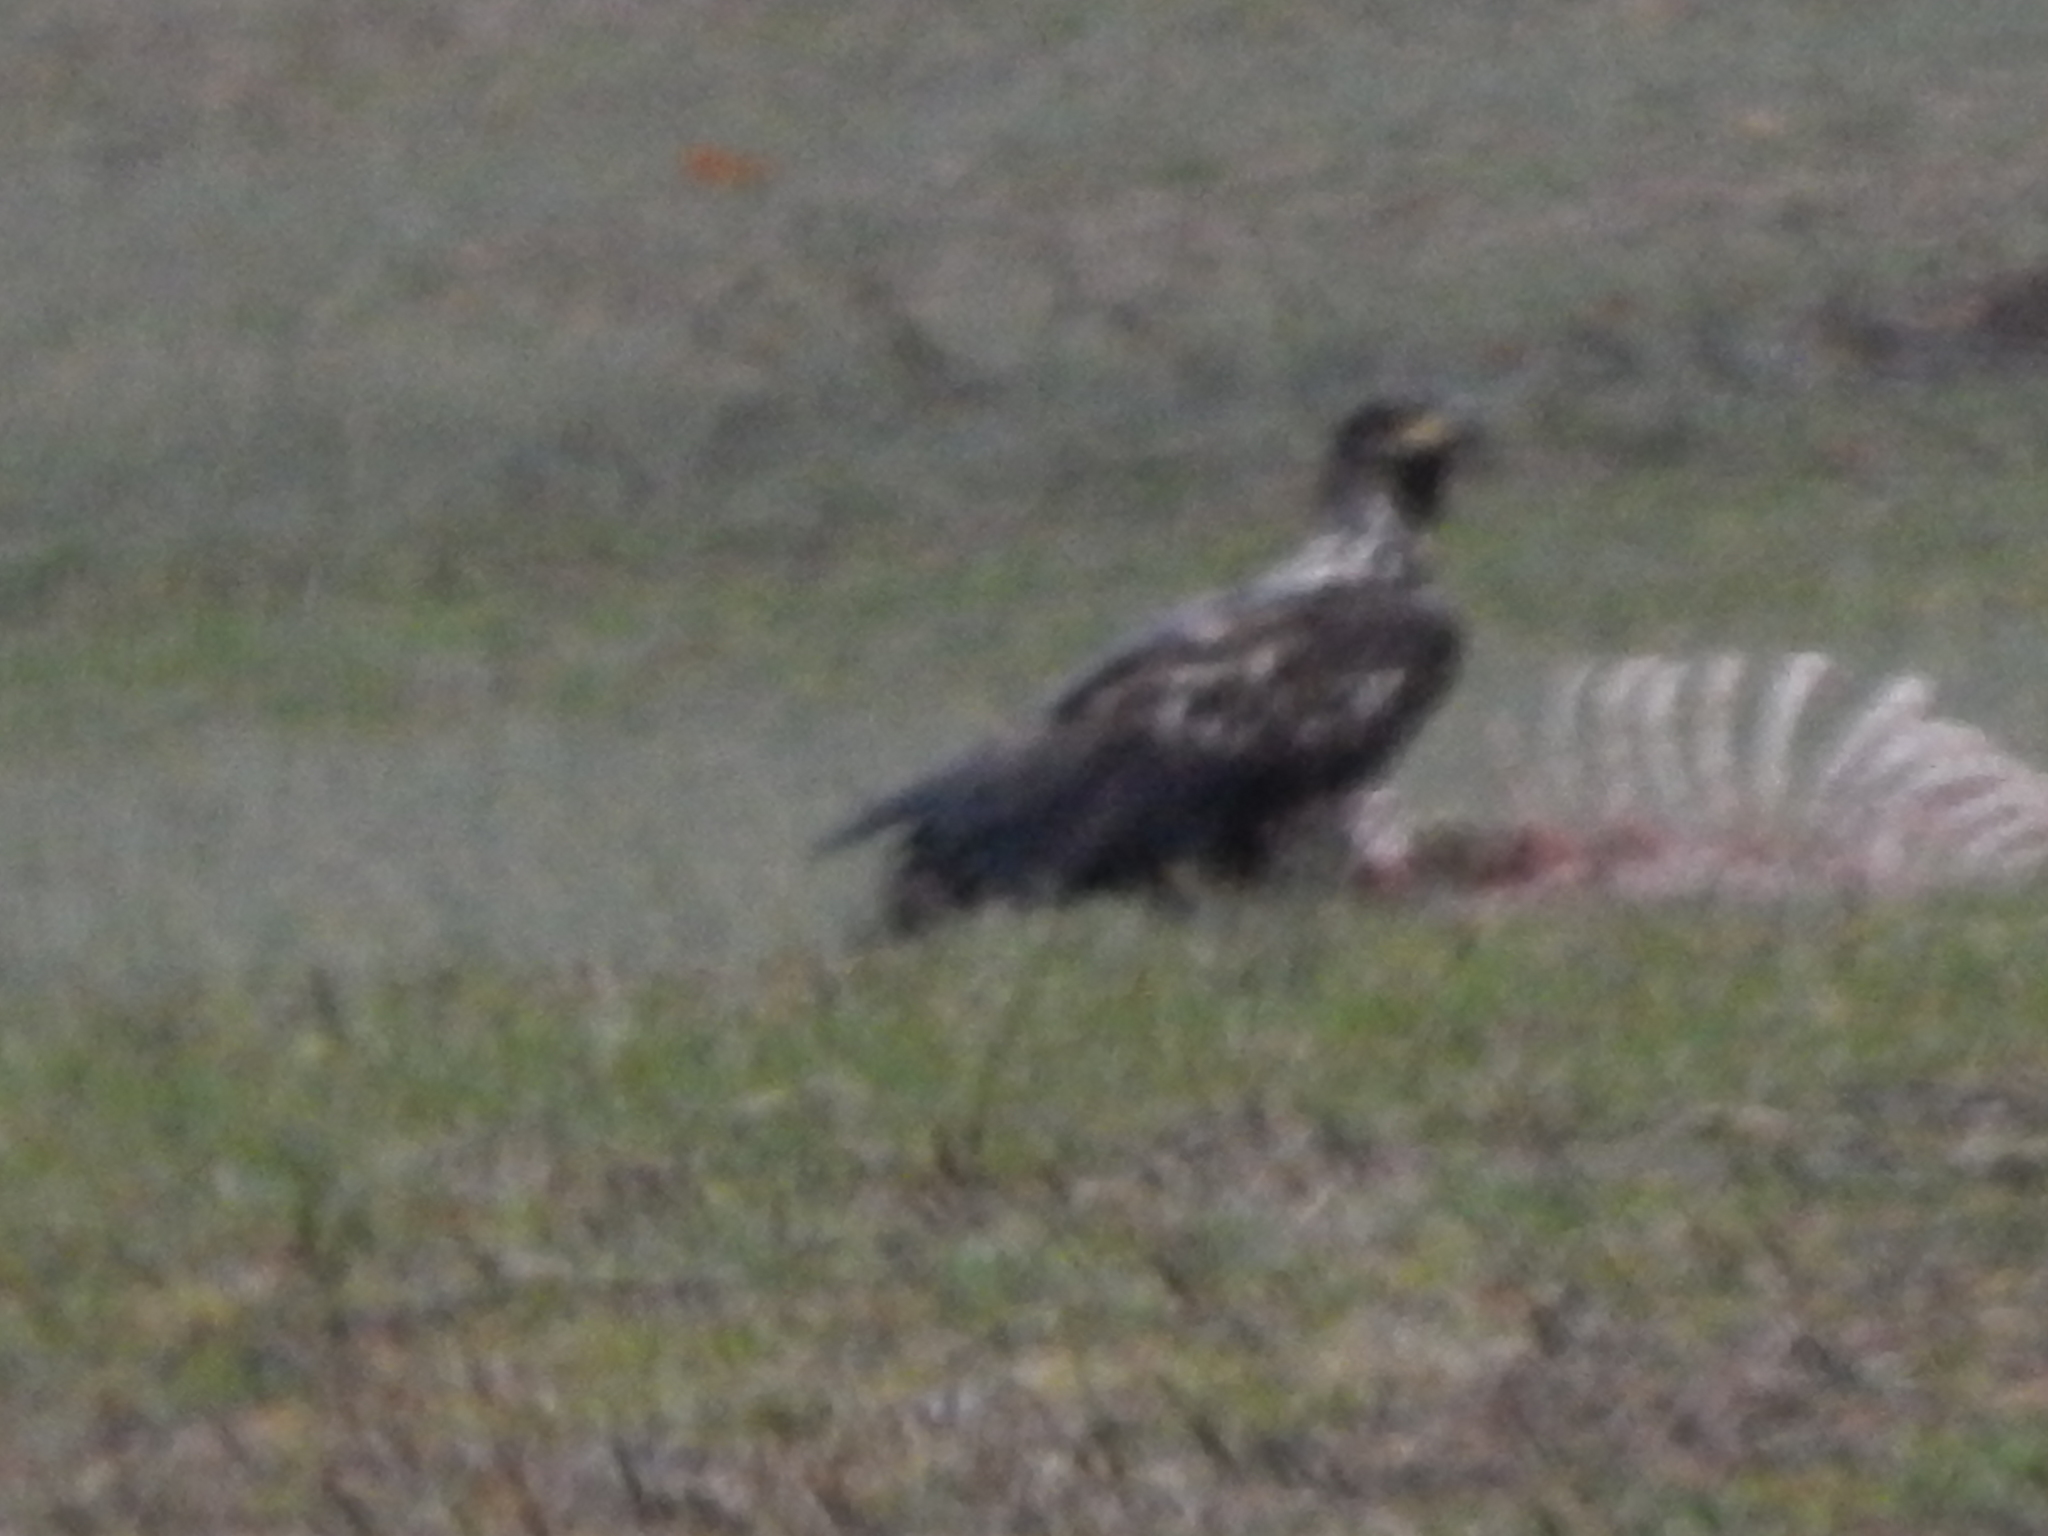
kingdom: Animalia
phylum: Chordata
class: Aves
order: Accipitriformes
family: Accipitridae
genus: Haliaeetus
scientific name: Haliaeetus leucocephalus
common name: Bald eagle
